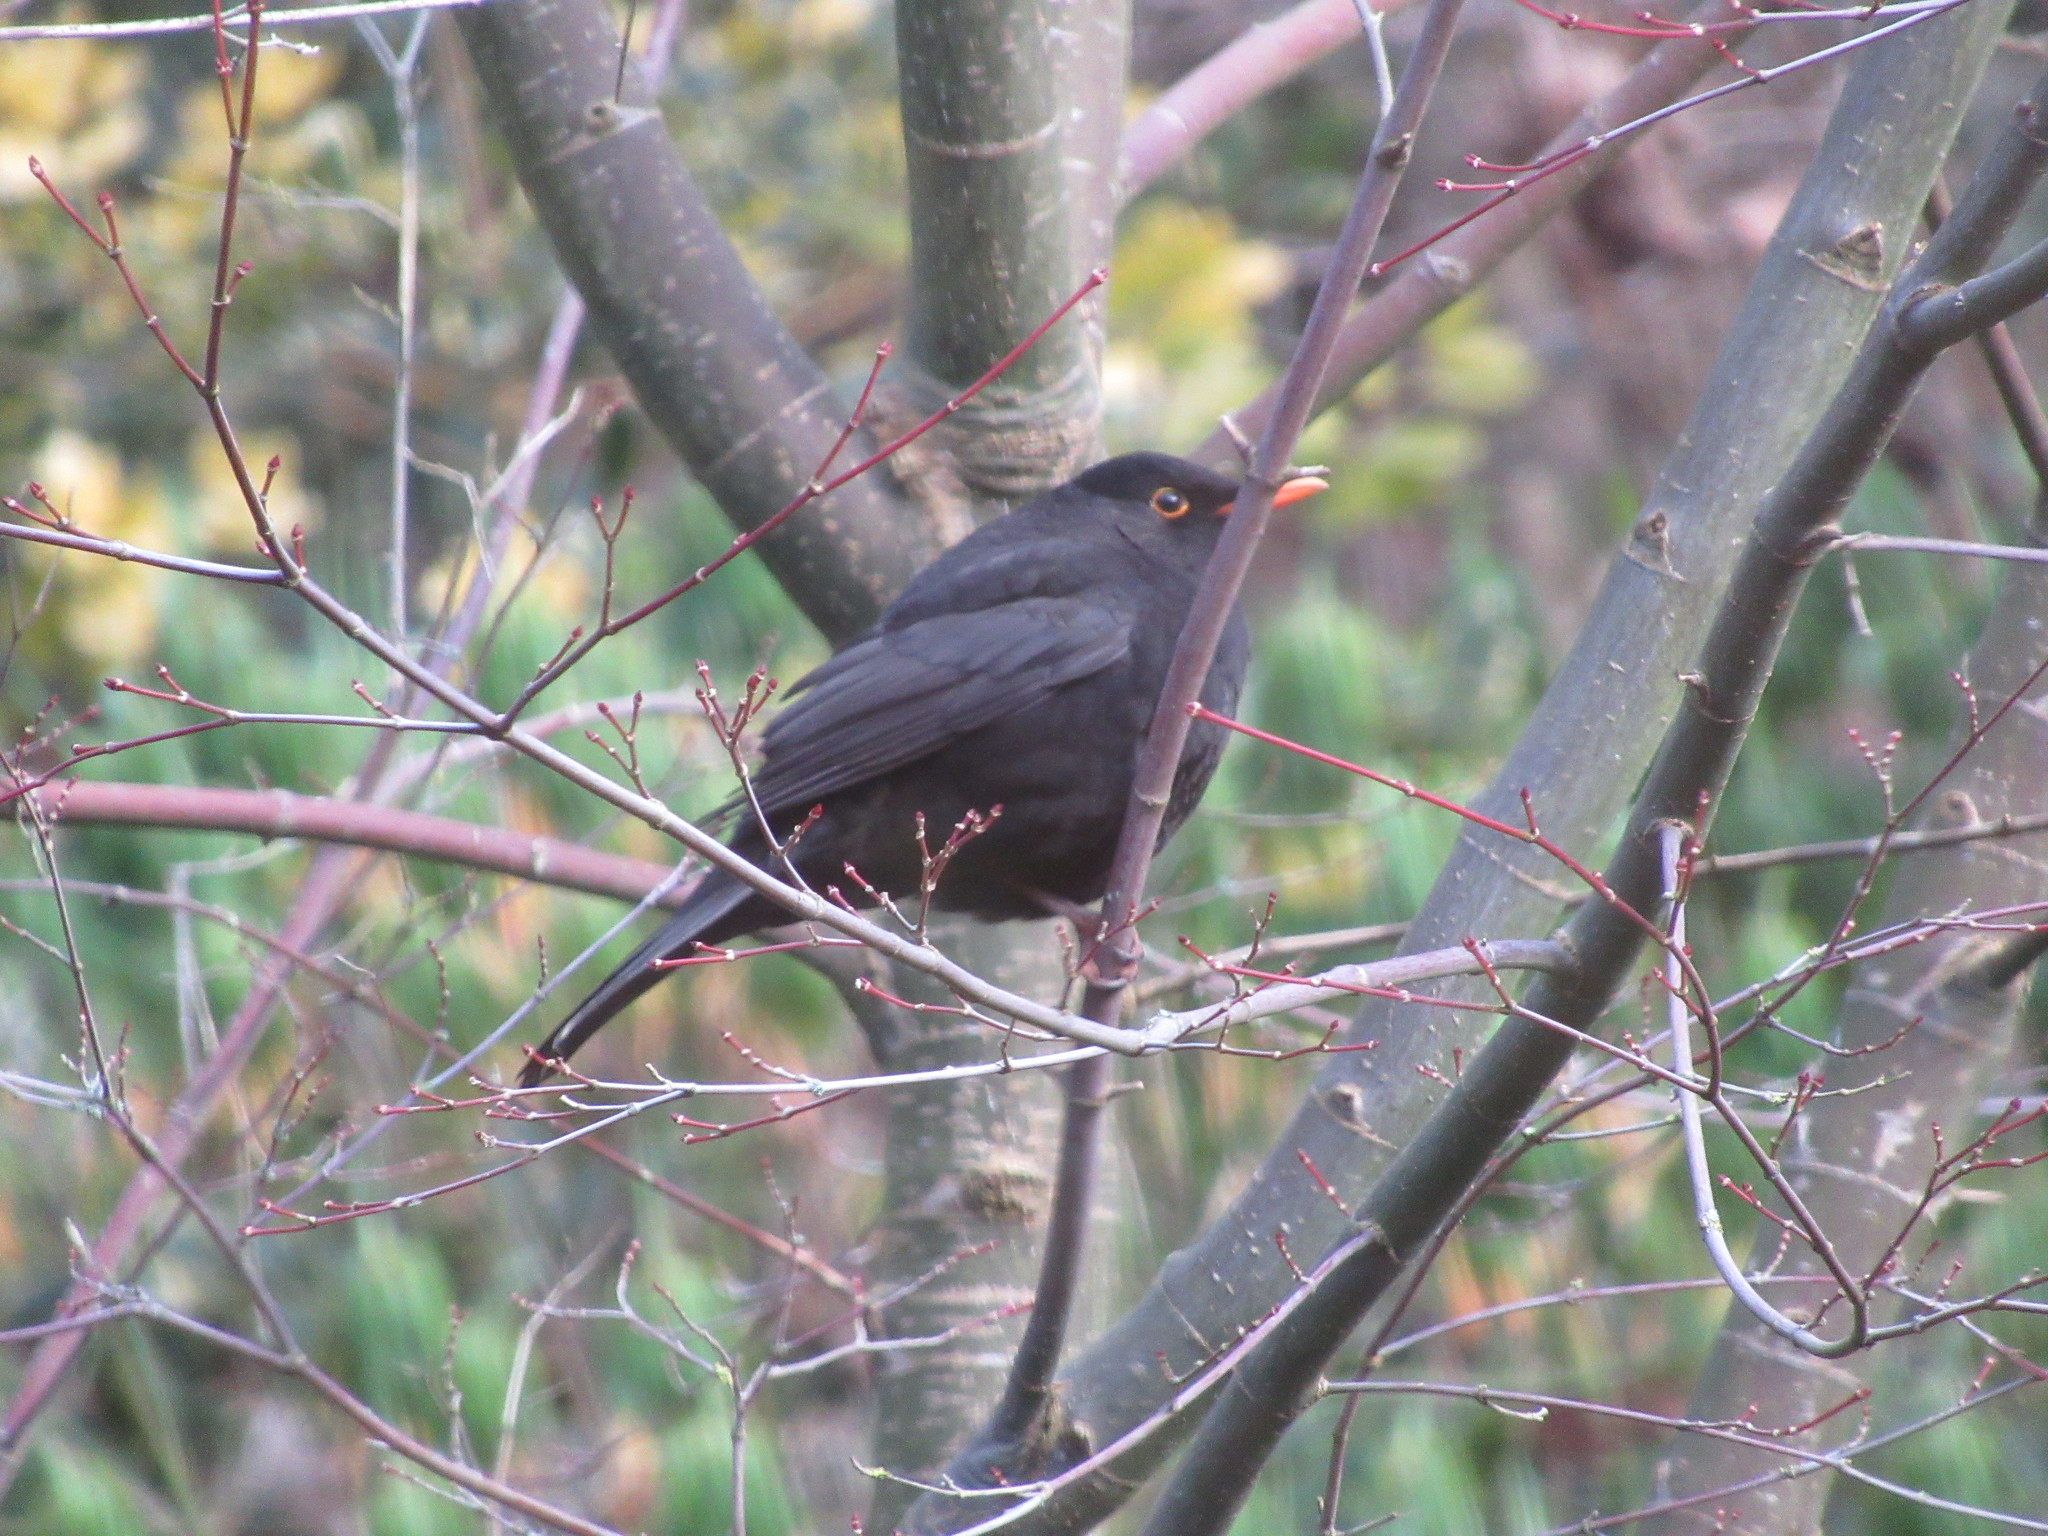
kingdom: Animalia
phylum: Chordata
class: Aves
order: Passeriformes
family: Turdidae
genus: Turdus
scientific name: Turdus merula
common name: Common blackbird
